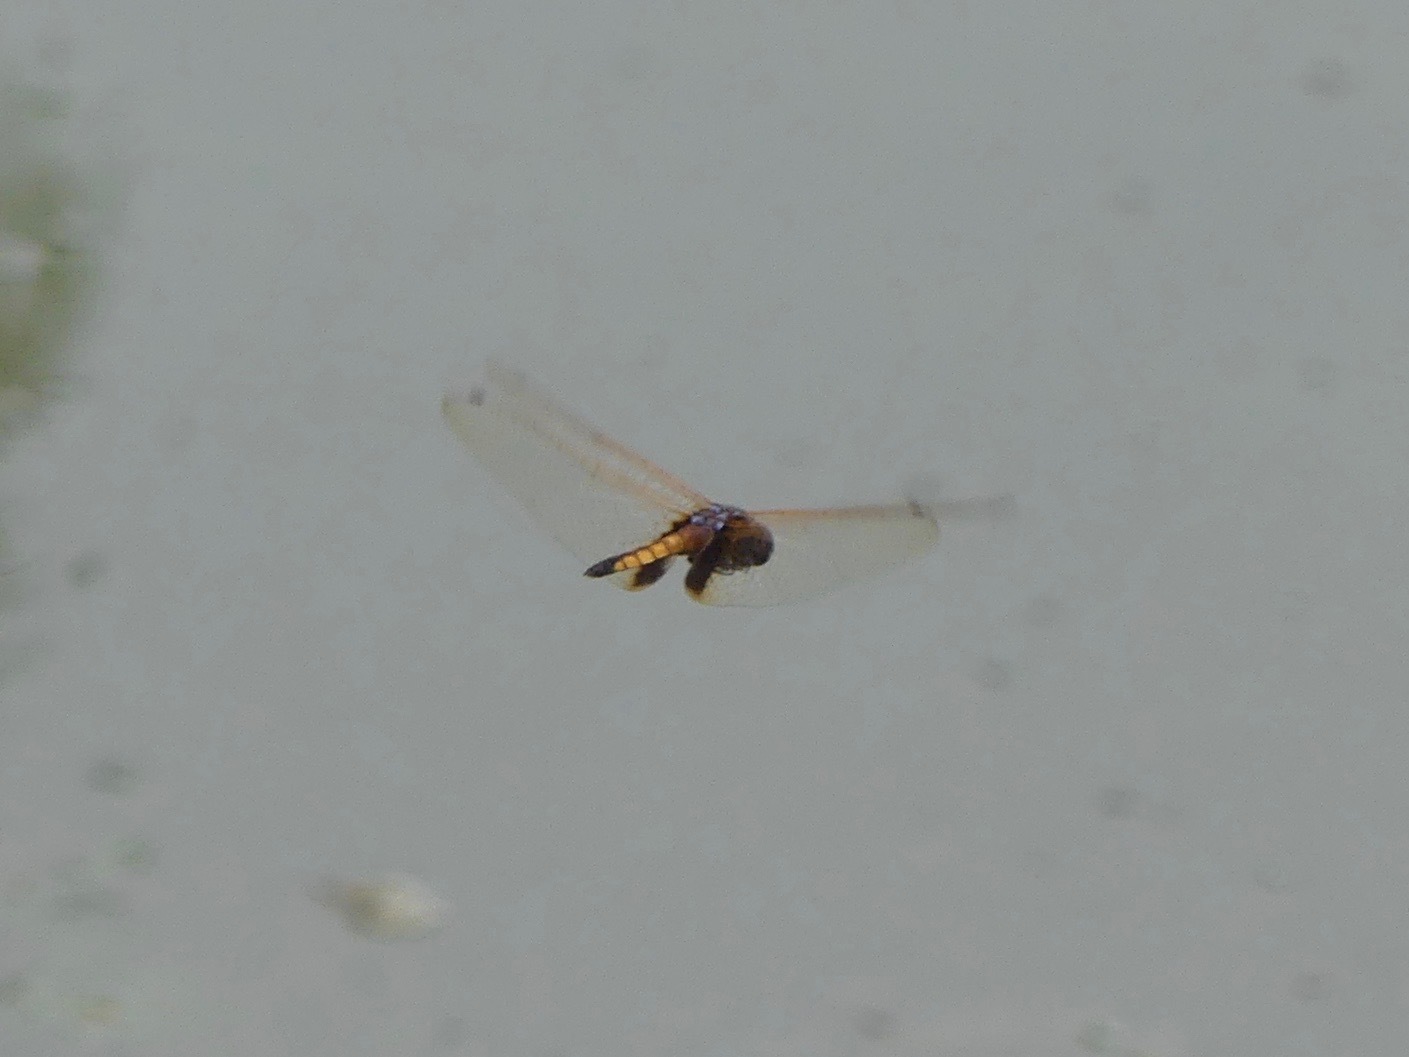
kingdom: Animalia
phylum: Arthropoda
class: Insecta
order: Odonata
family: Libellulidae
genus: Miathyria
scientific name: Miathyria marcella
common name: Hyacinth glider
